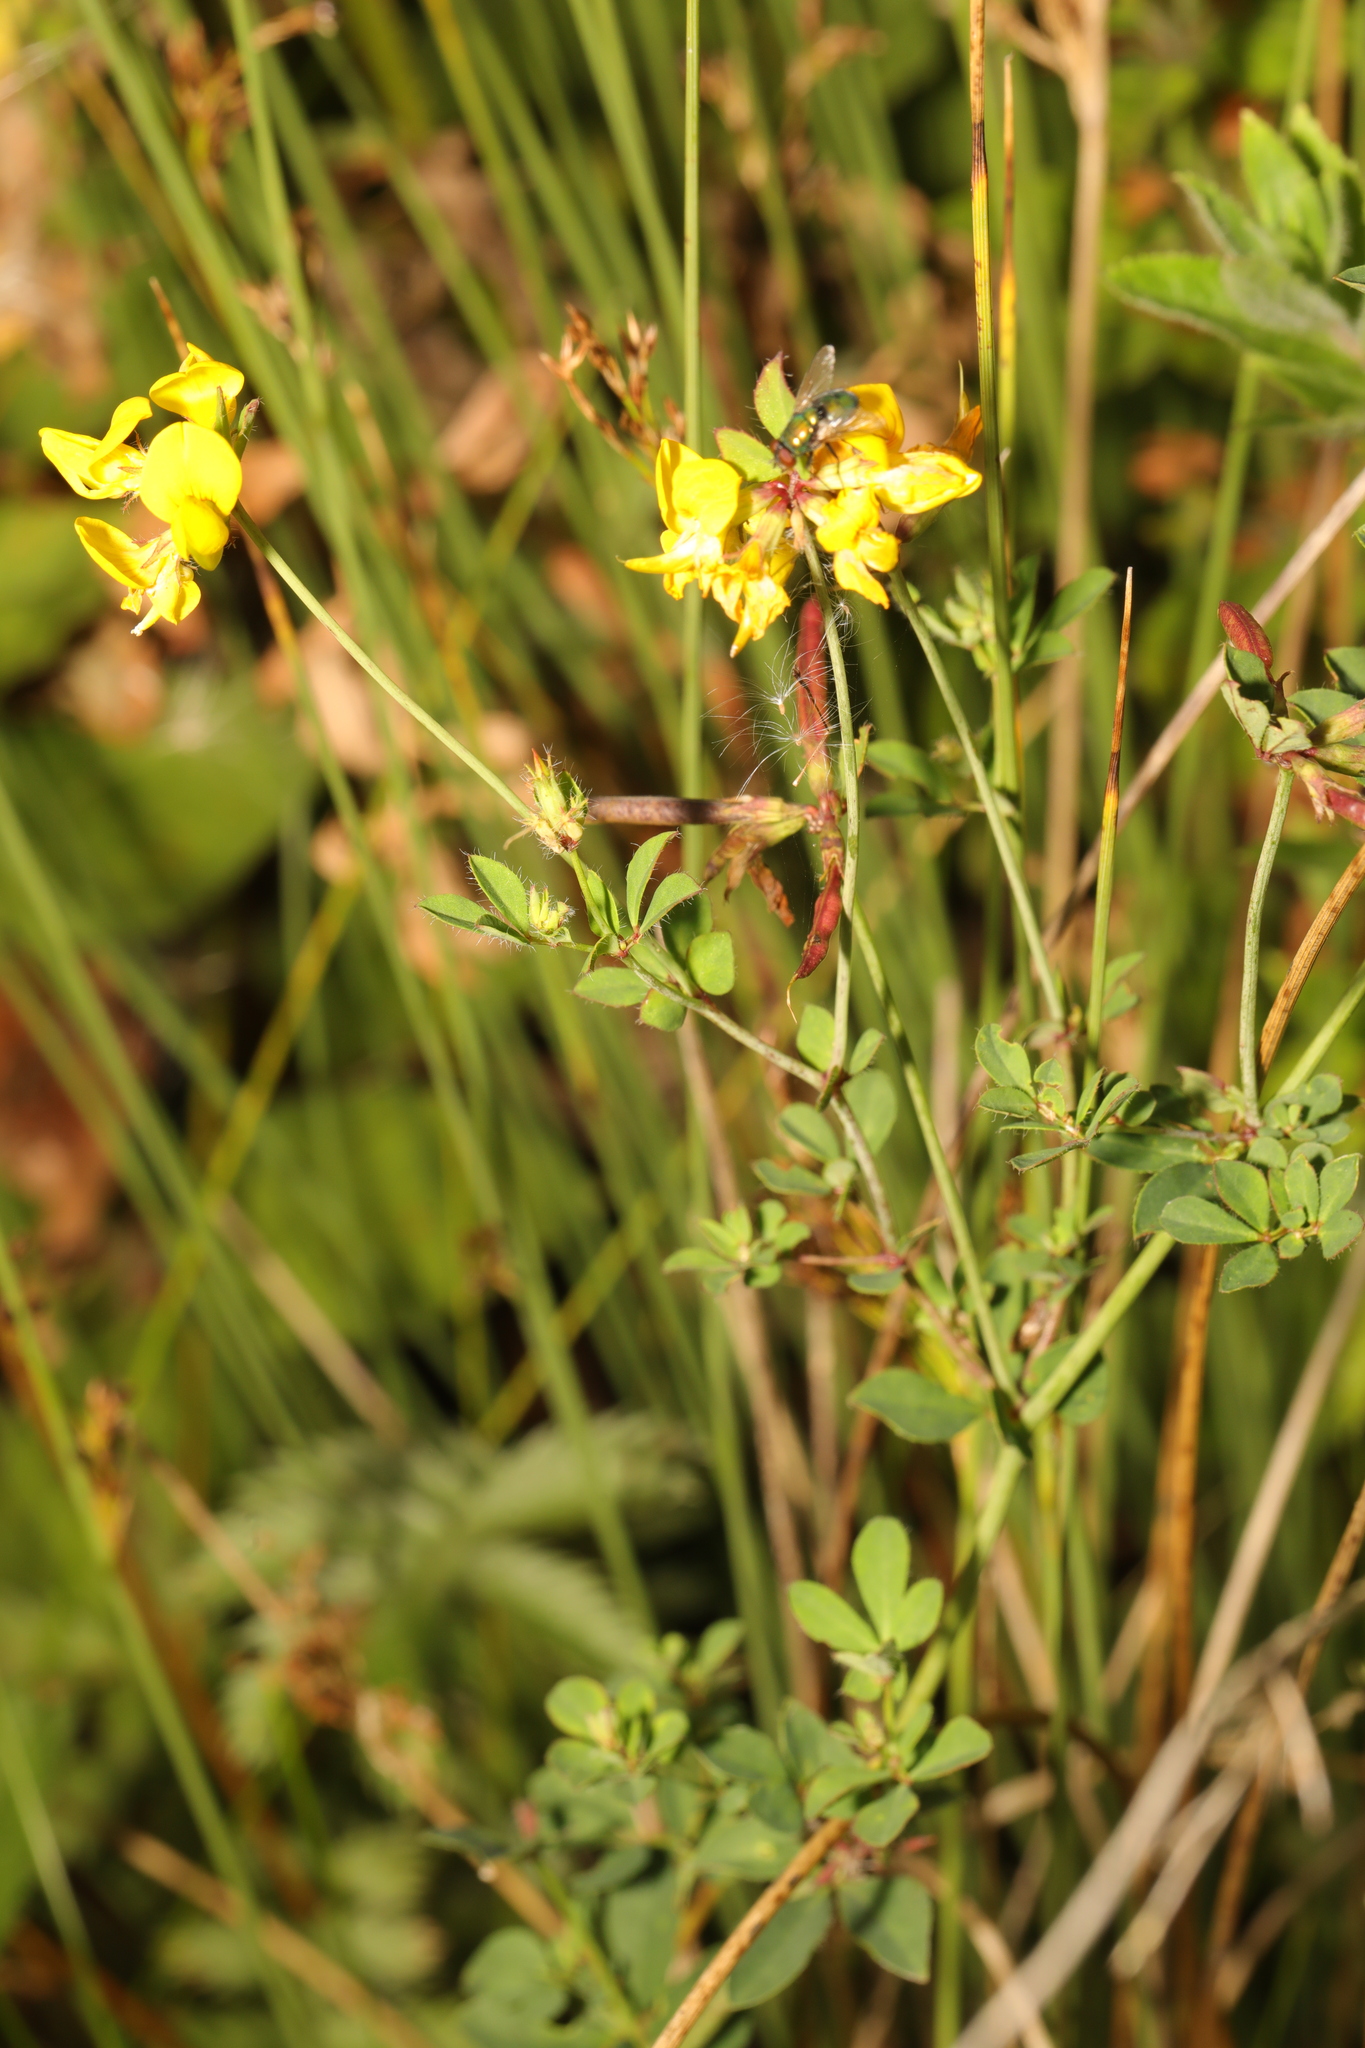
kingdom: Plantae
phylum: Tracheophyta
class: Magnoliopsida
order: Fabales
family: Fabaceae
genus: Lotus
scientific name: Lotus pedunculatus
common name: Greater birdsfoot-trefoil
